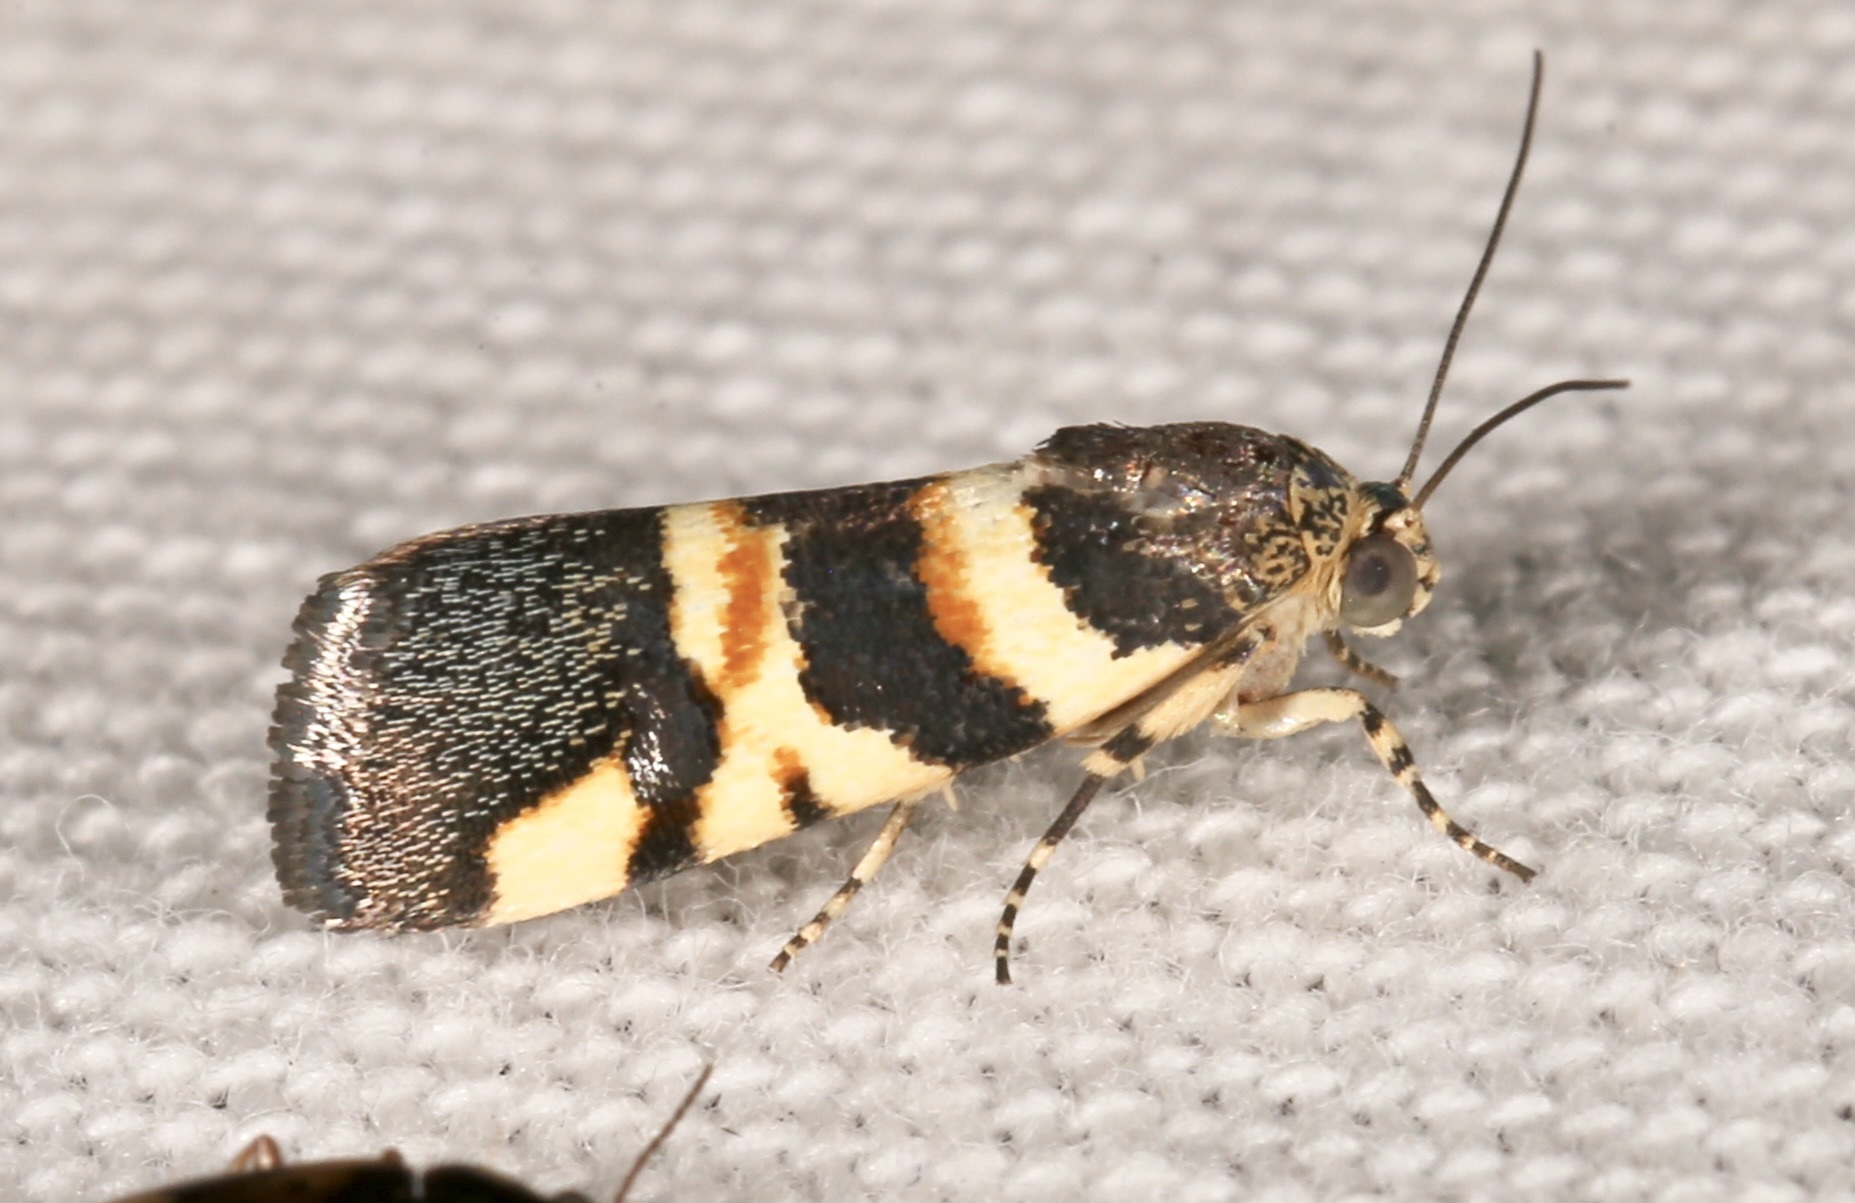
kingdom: Animalia
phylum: Arthropoda
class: Insecta
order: Lepidoptera
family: Noctuidae
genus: Spragueia
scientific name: Spragueia funeralis
